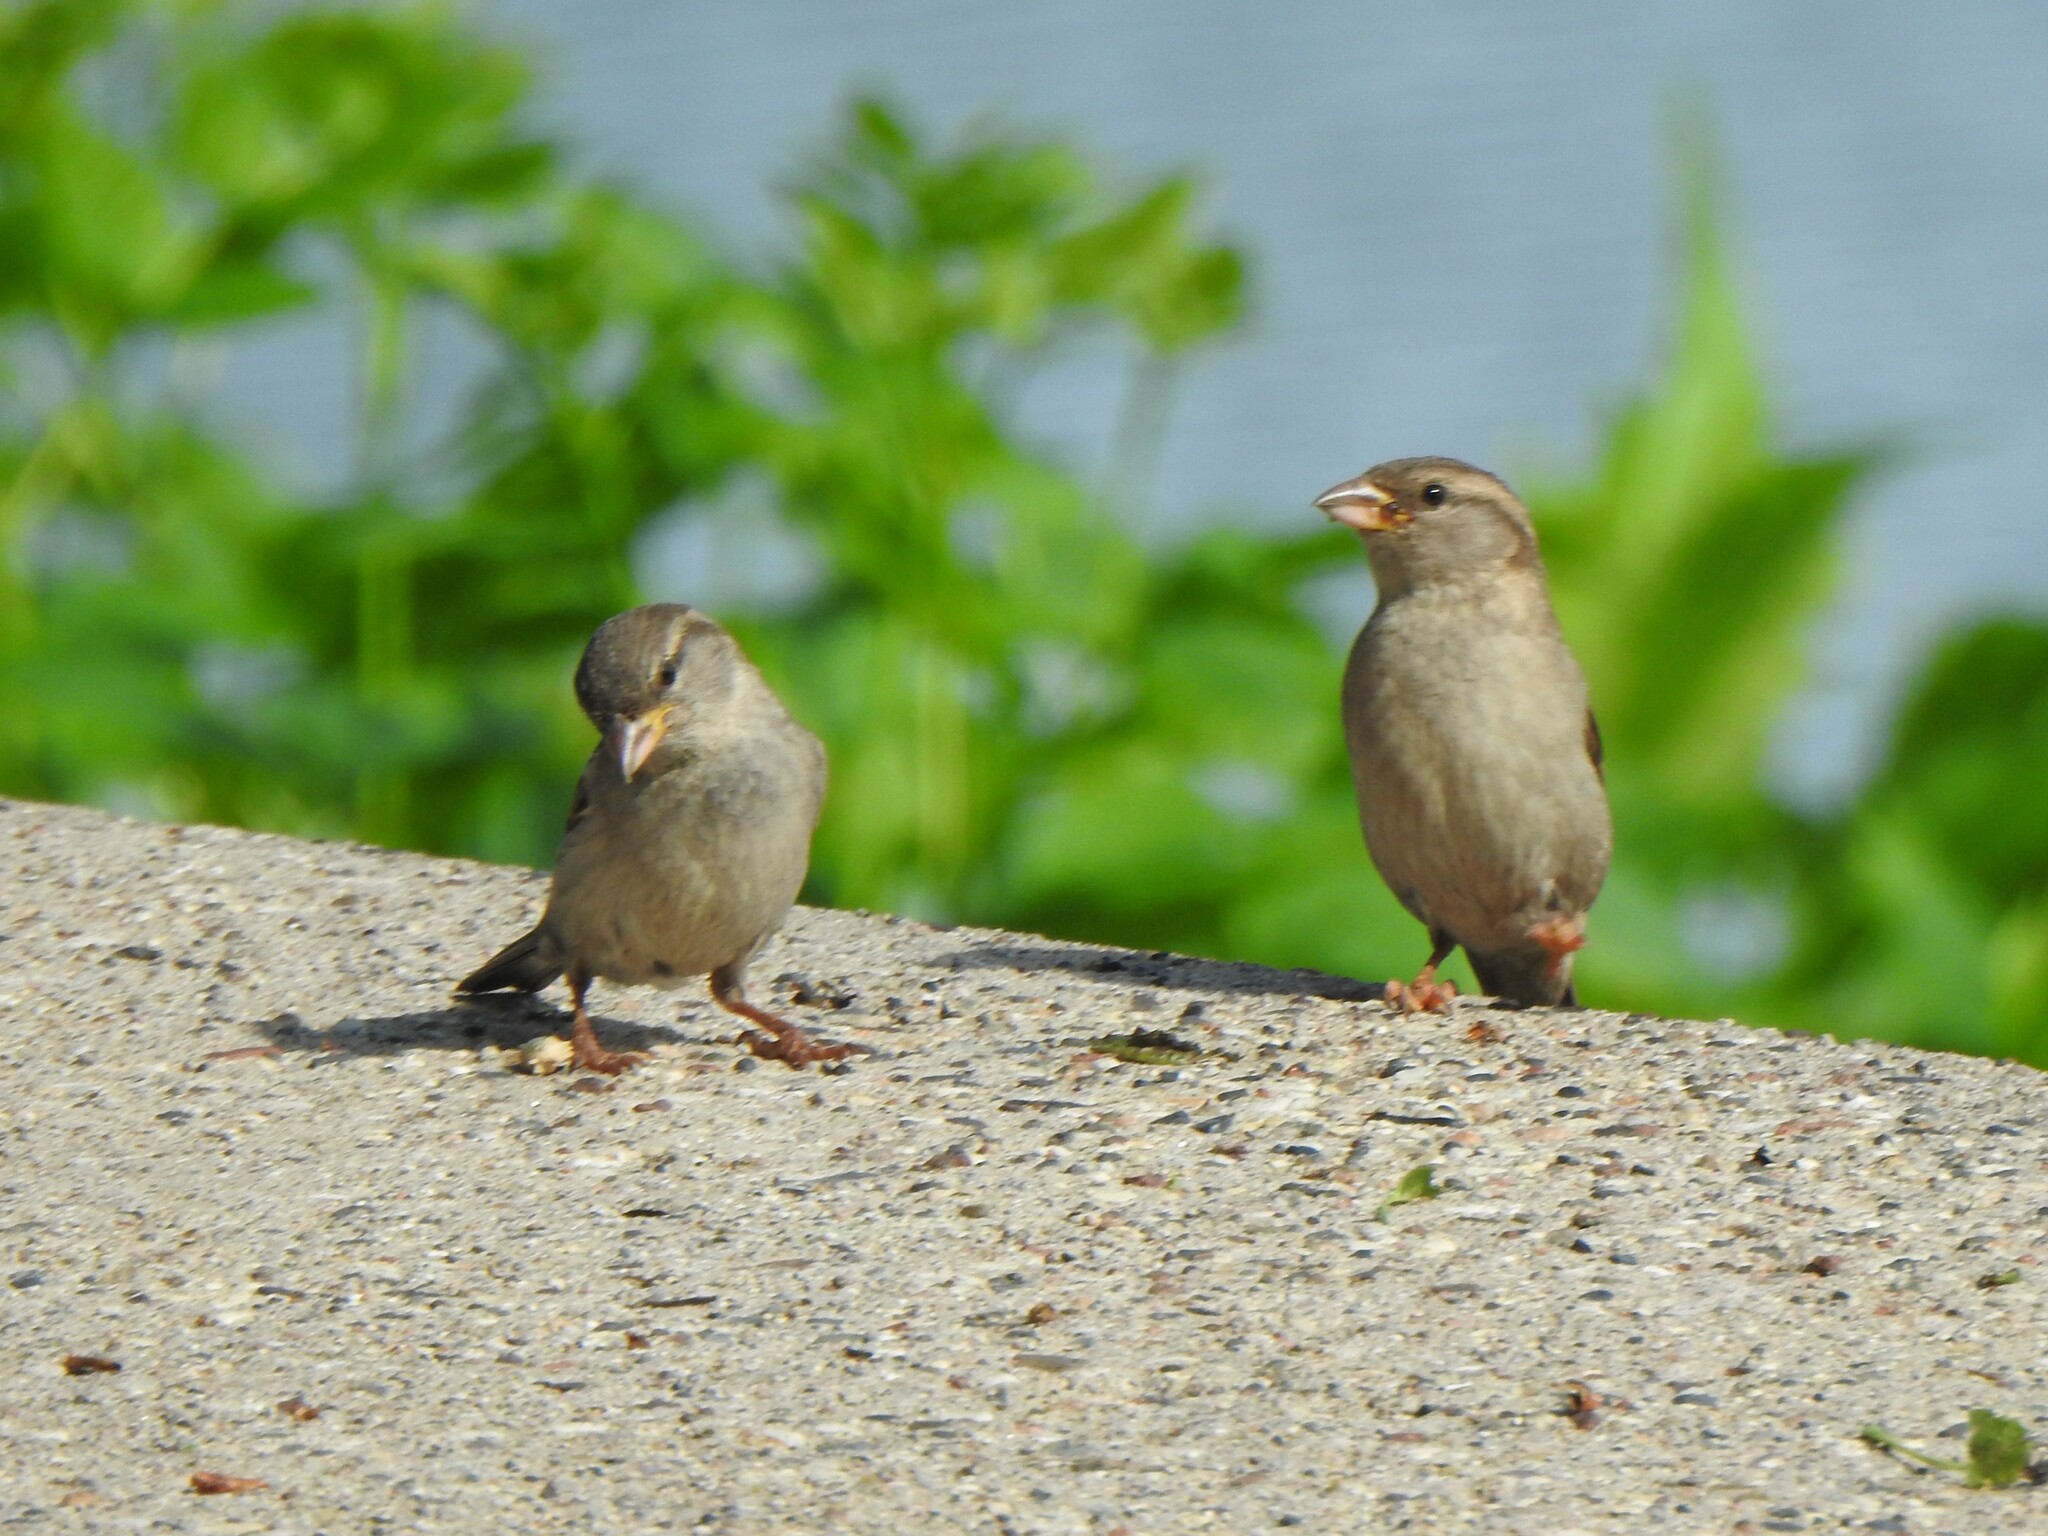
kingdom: Animalia
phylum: Chordata
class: Aves
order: Passeriformes
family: Passeridae
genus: Passer
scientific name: Passer domesticus
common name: House sparrow
